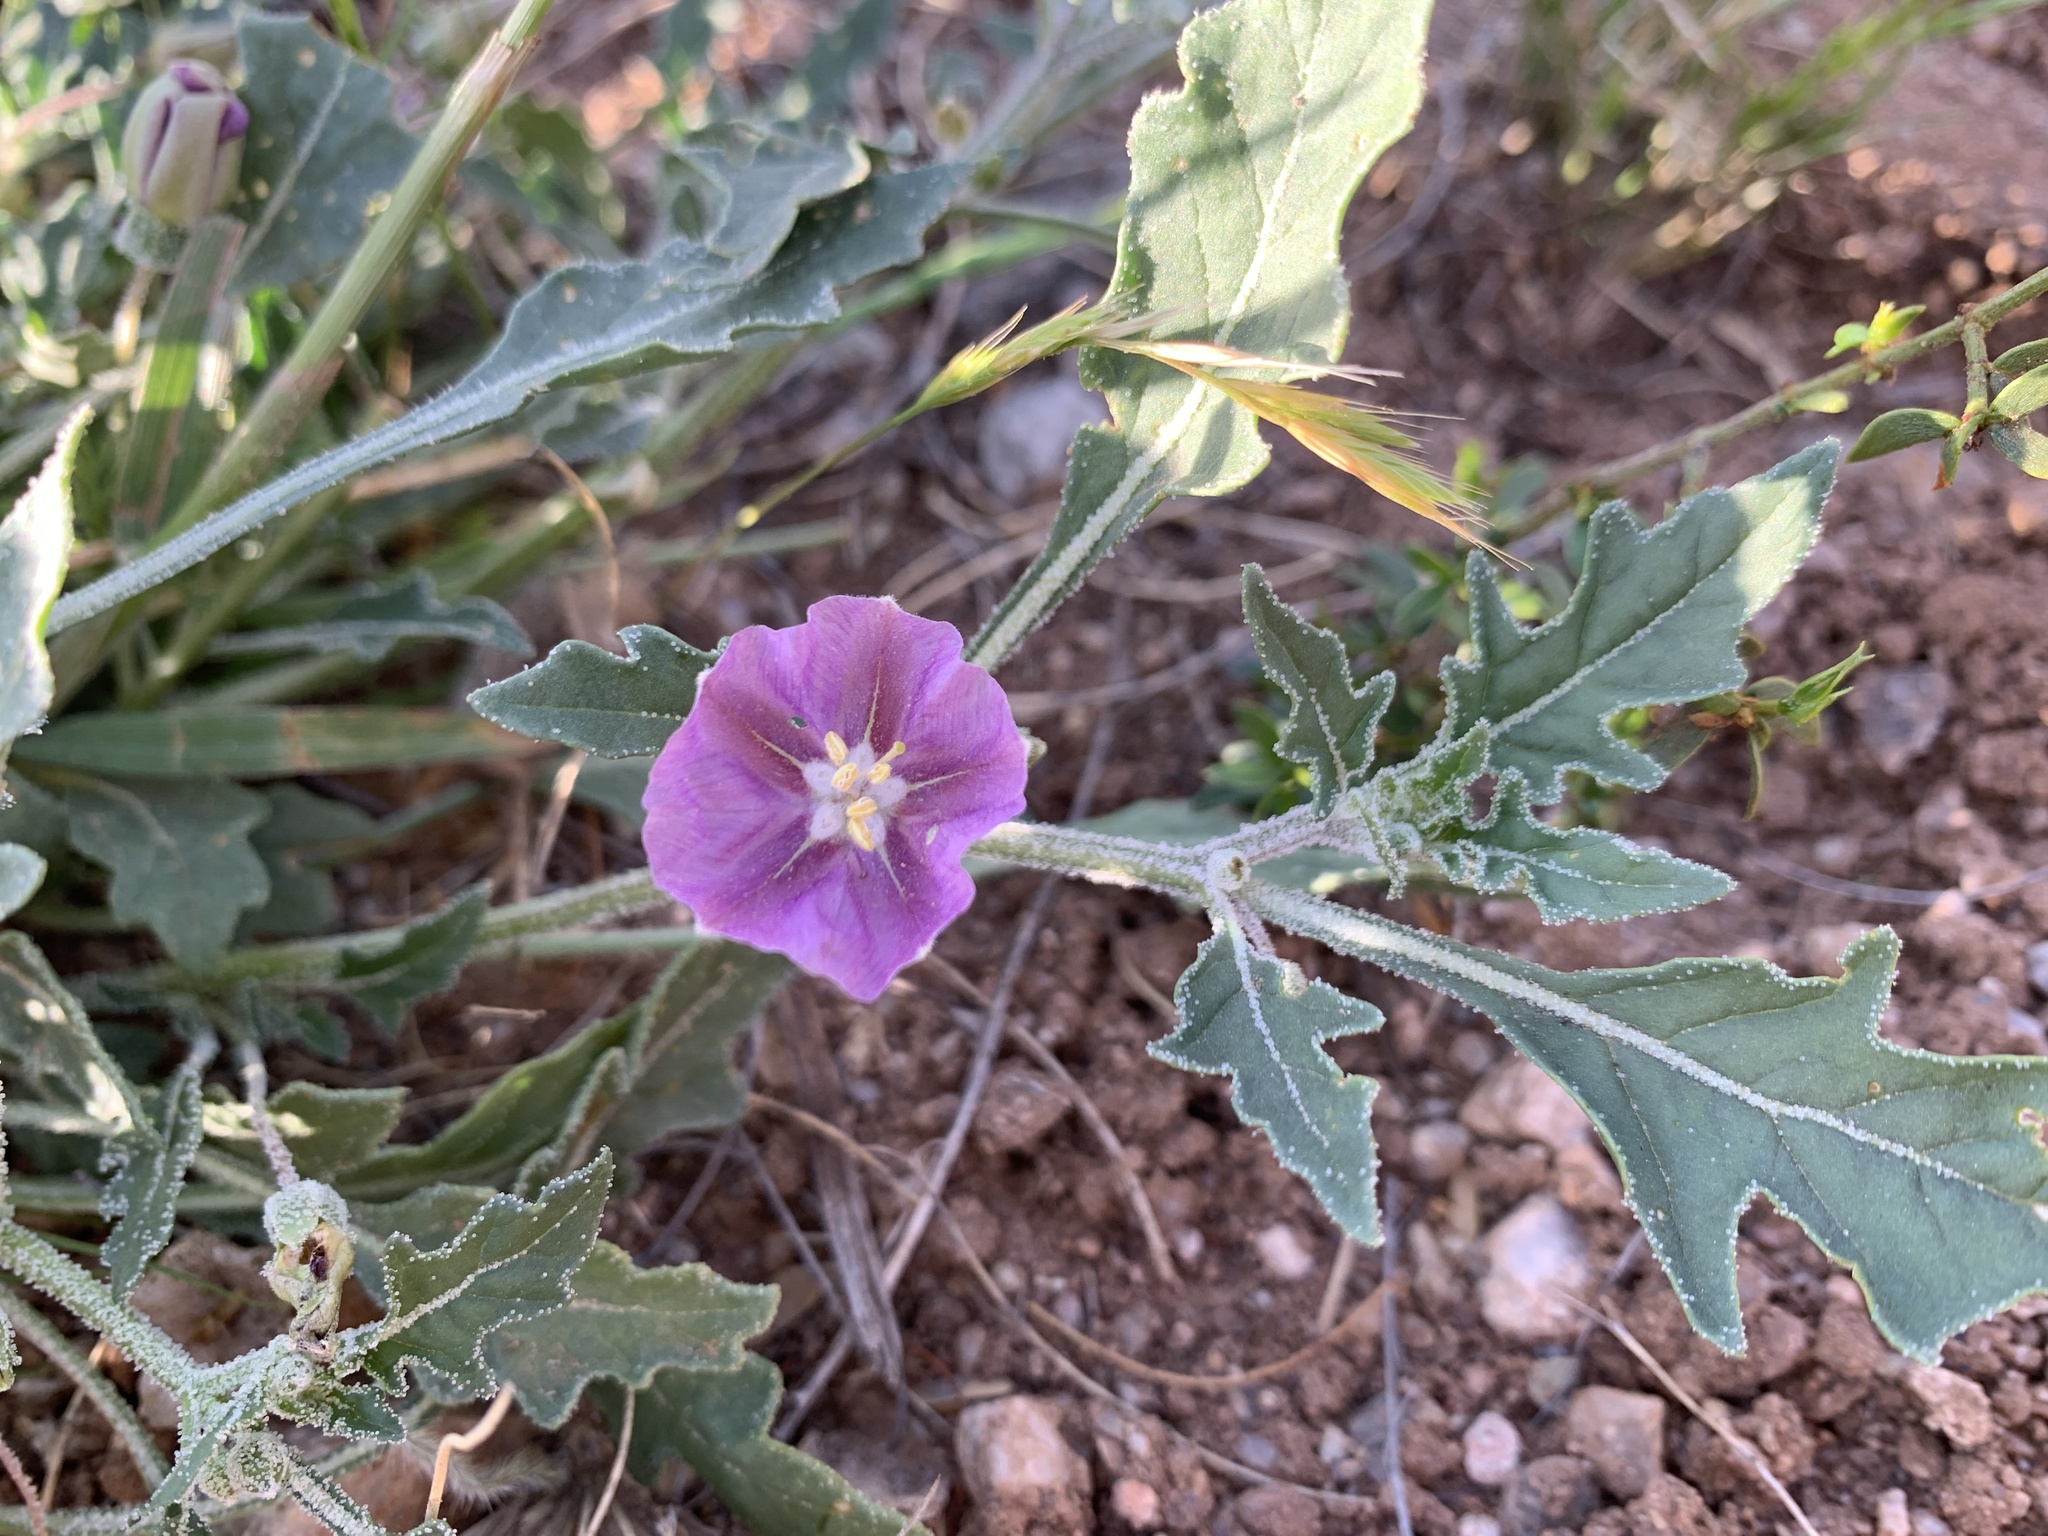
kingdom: Plantae
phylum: Tracheophyta
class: Magnoliopsida
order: Solanales
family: Solanaceae
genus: Quincula
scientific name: Quincula lobata
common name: Purple-ground-cherry
